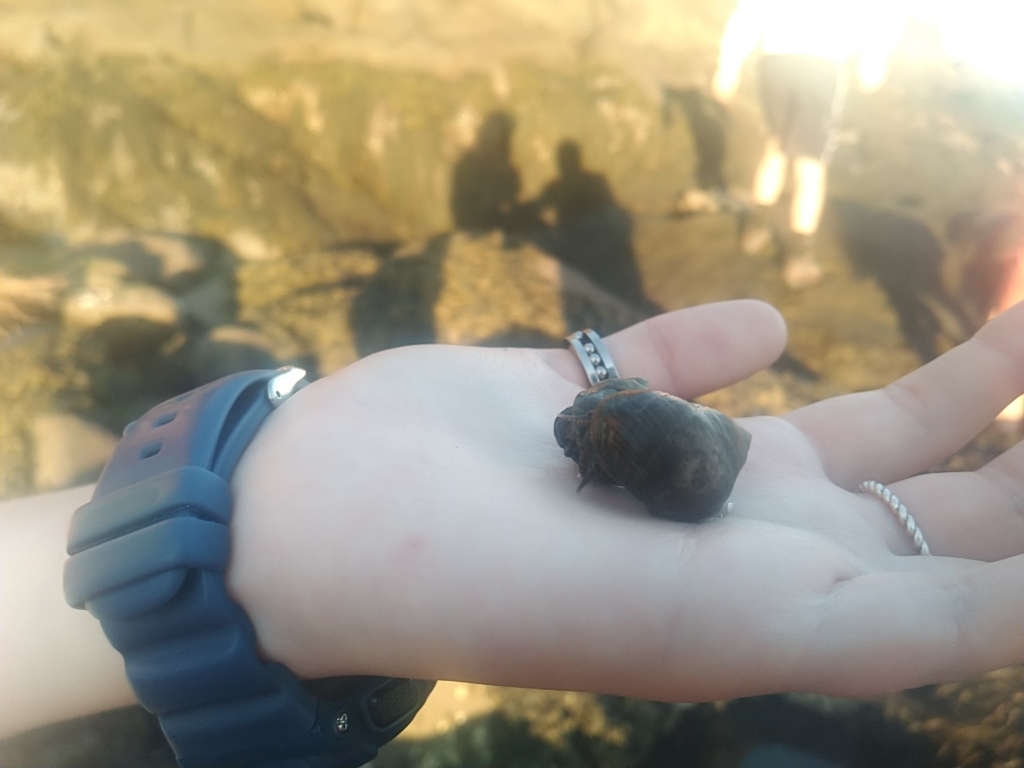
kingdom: Animalia
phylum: Mollusca
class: Gastropoda
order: Littorinimorpha
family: Littorinidae
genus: Littorina
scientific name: Littorina littorea
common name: Common periwinkle
